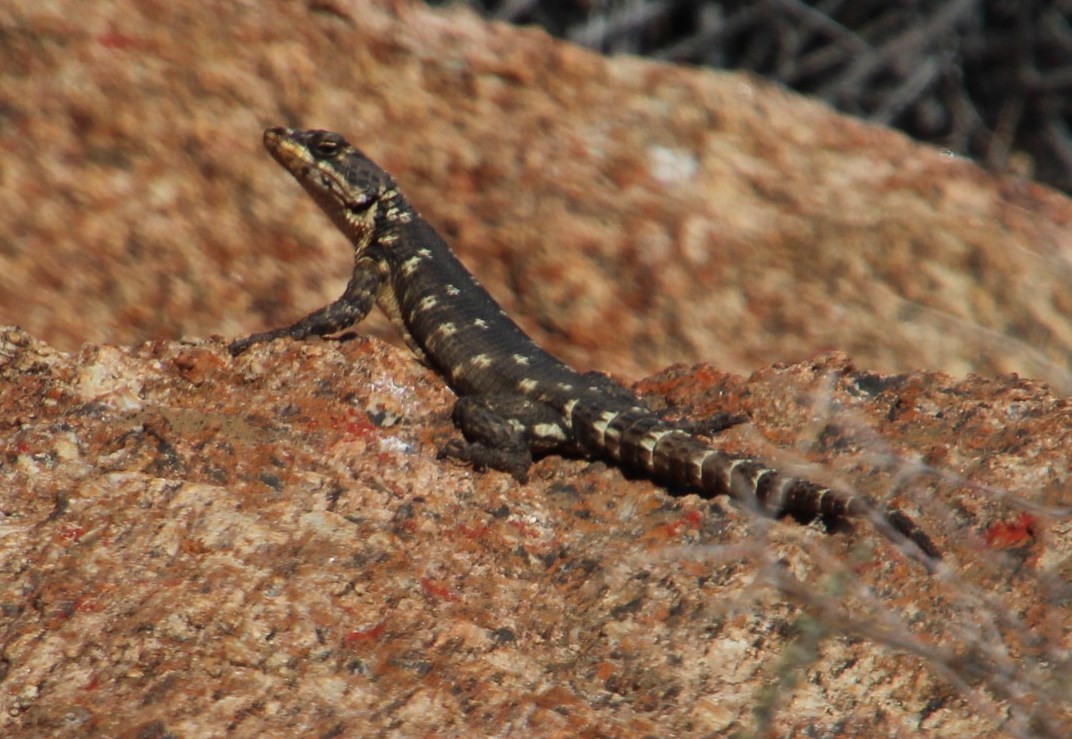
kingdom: Animalia
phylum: Chordata
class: Squamata
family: Cordylidae
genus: Karusasaurus
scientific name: Karusasaurus polyzonus
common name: Karoo girdled lizard
